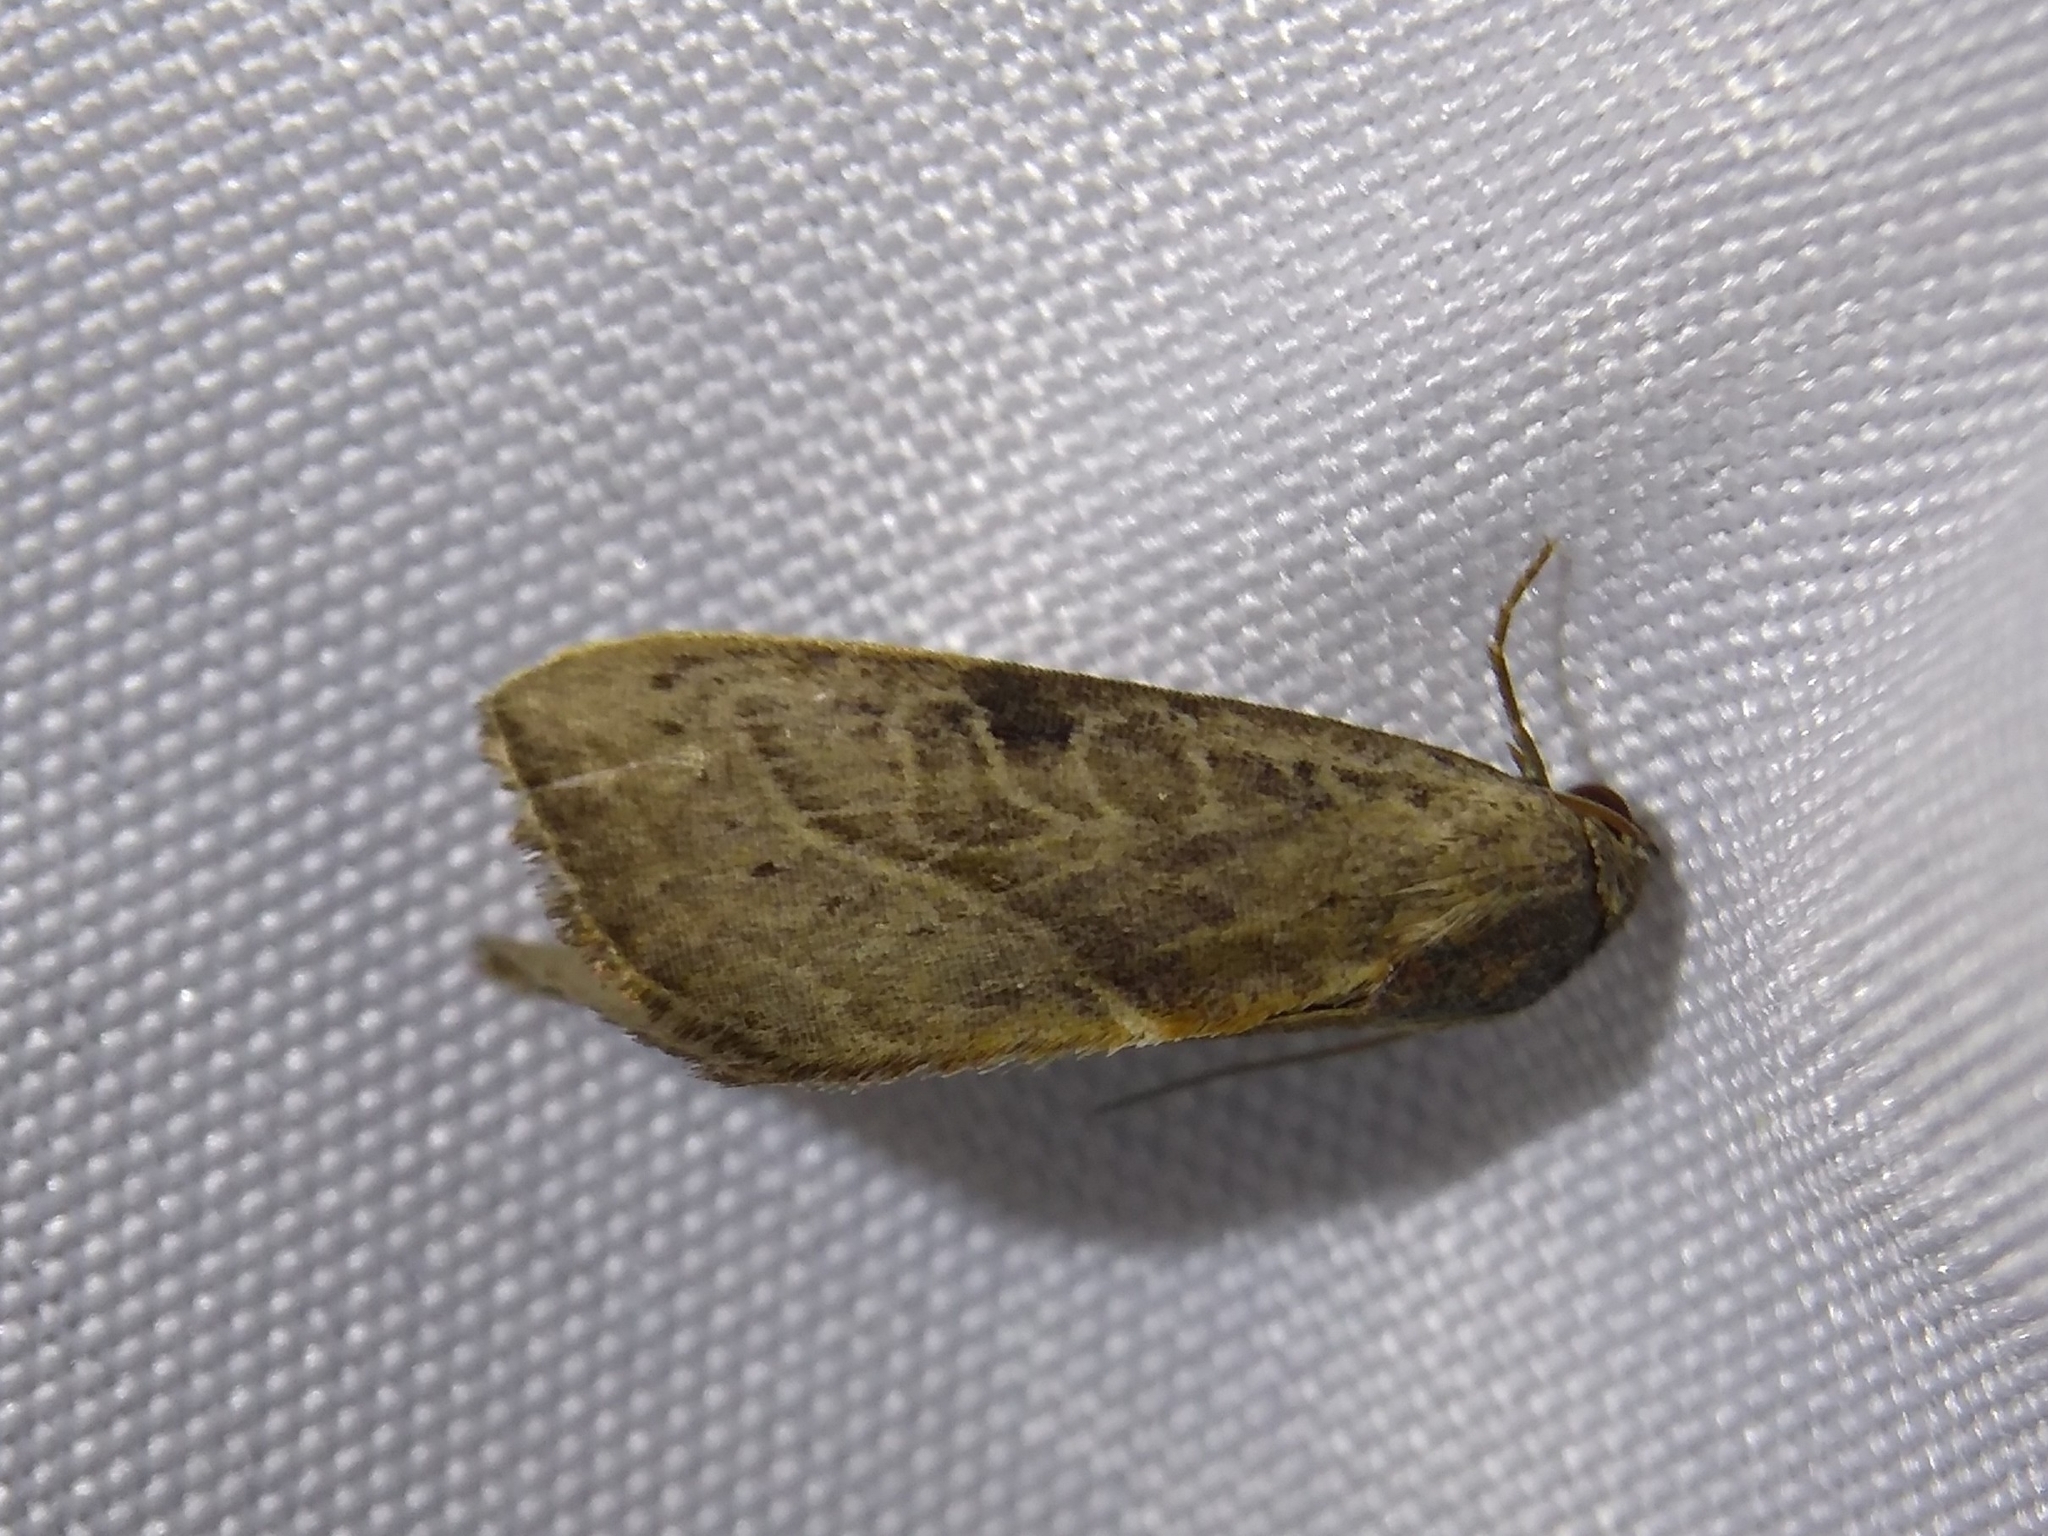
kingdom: Animalia
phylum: Arthropoda
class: Insecta
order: Lepidoptera
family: Noctuidae
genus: Galgula
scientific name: Galgula partita
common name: Wedgeling
